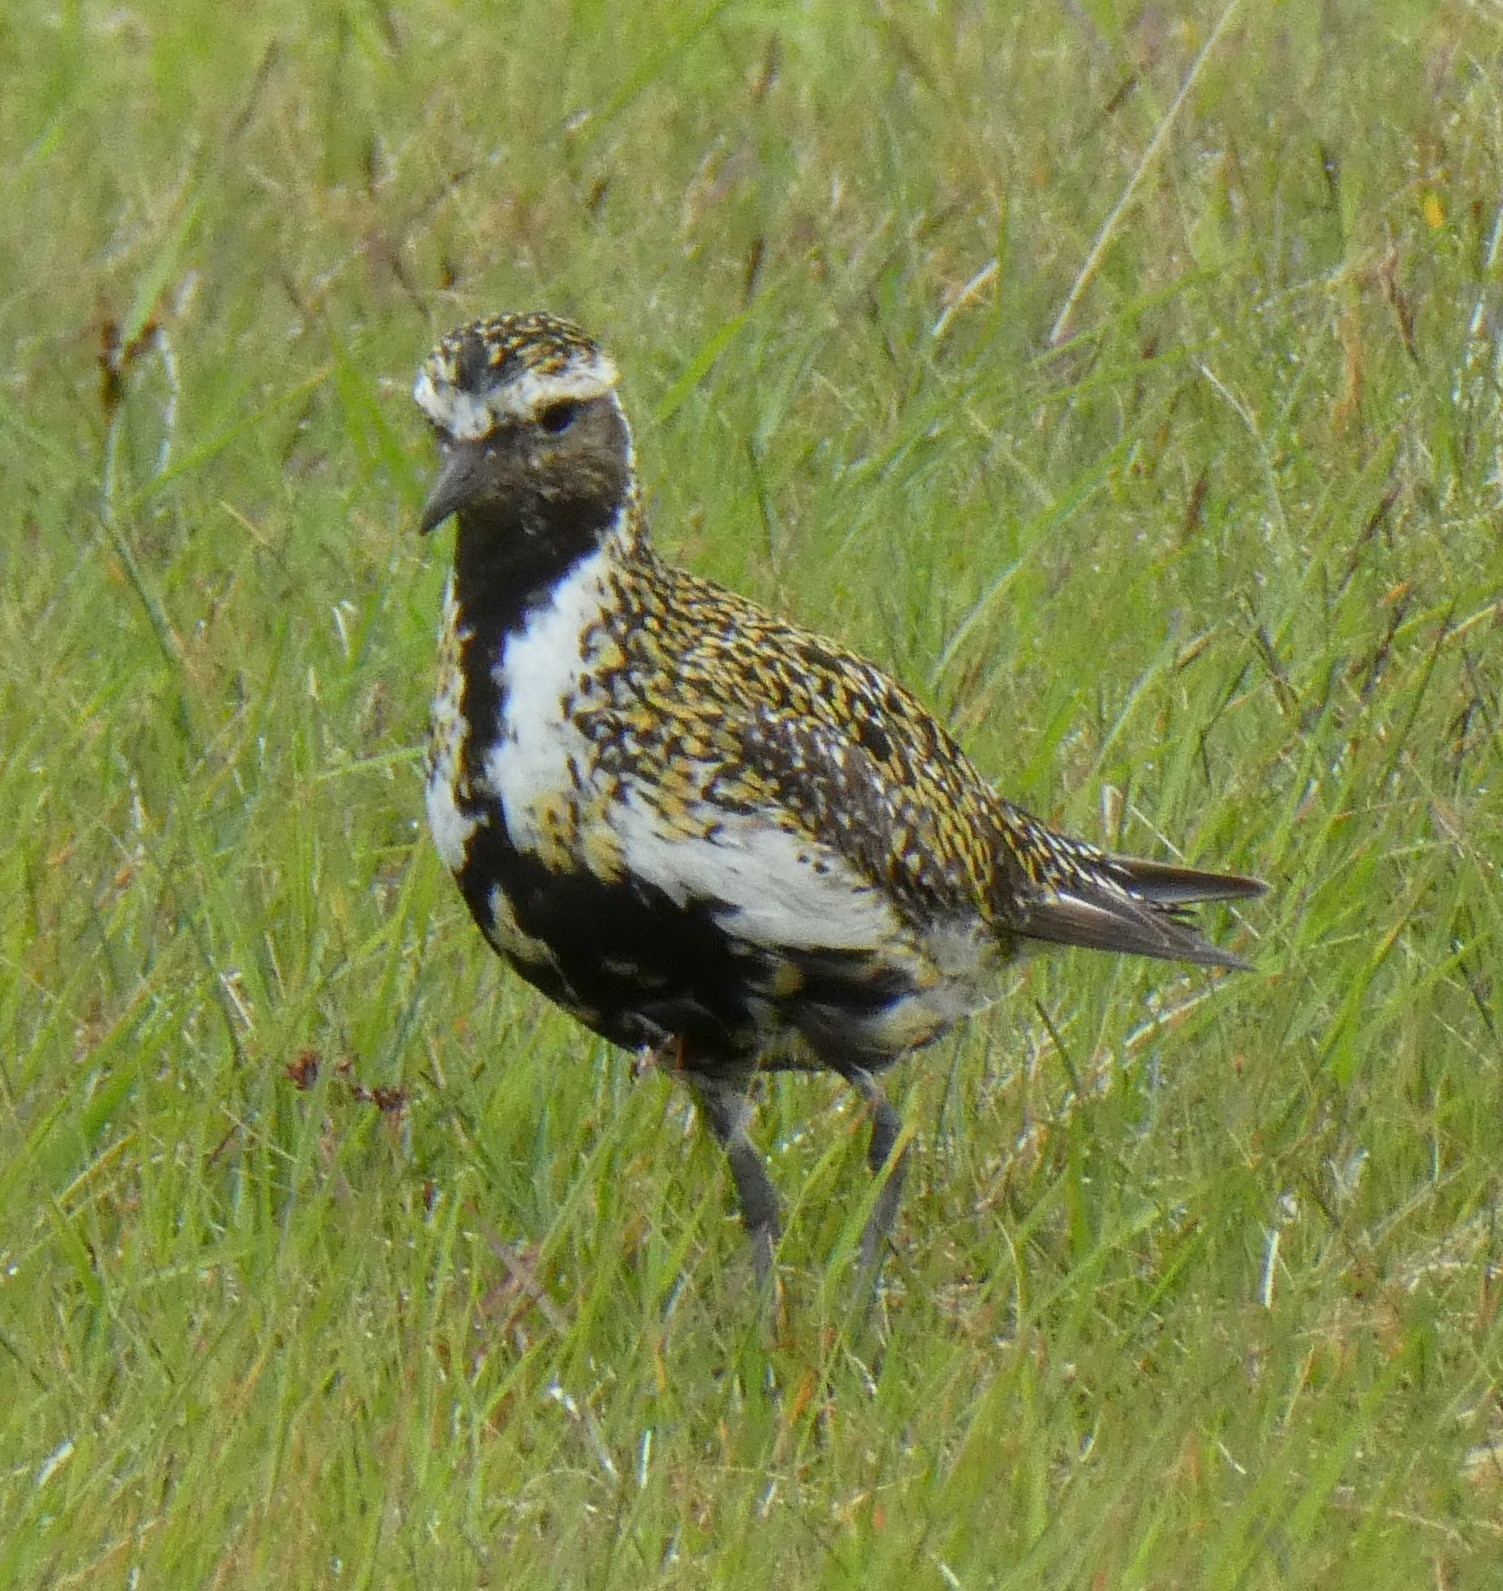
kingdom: Animalia
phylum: Chordata
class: Aves
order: Charadriiformes
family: Charadriidae
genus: Pluvialis
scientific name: Pluvialis apricaria
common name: European golden plover
